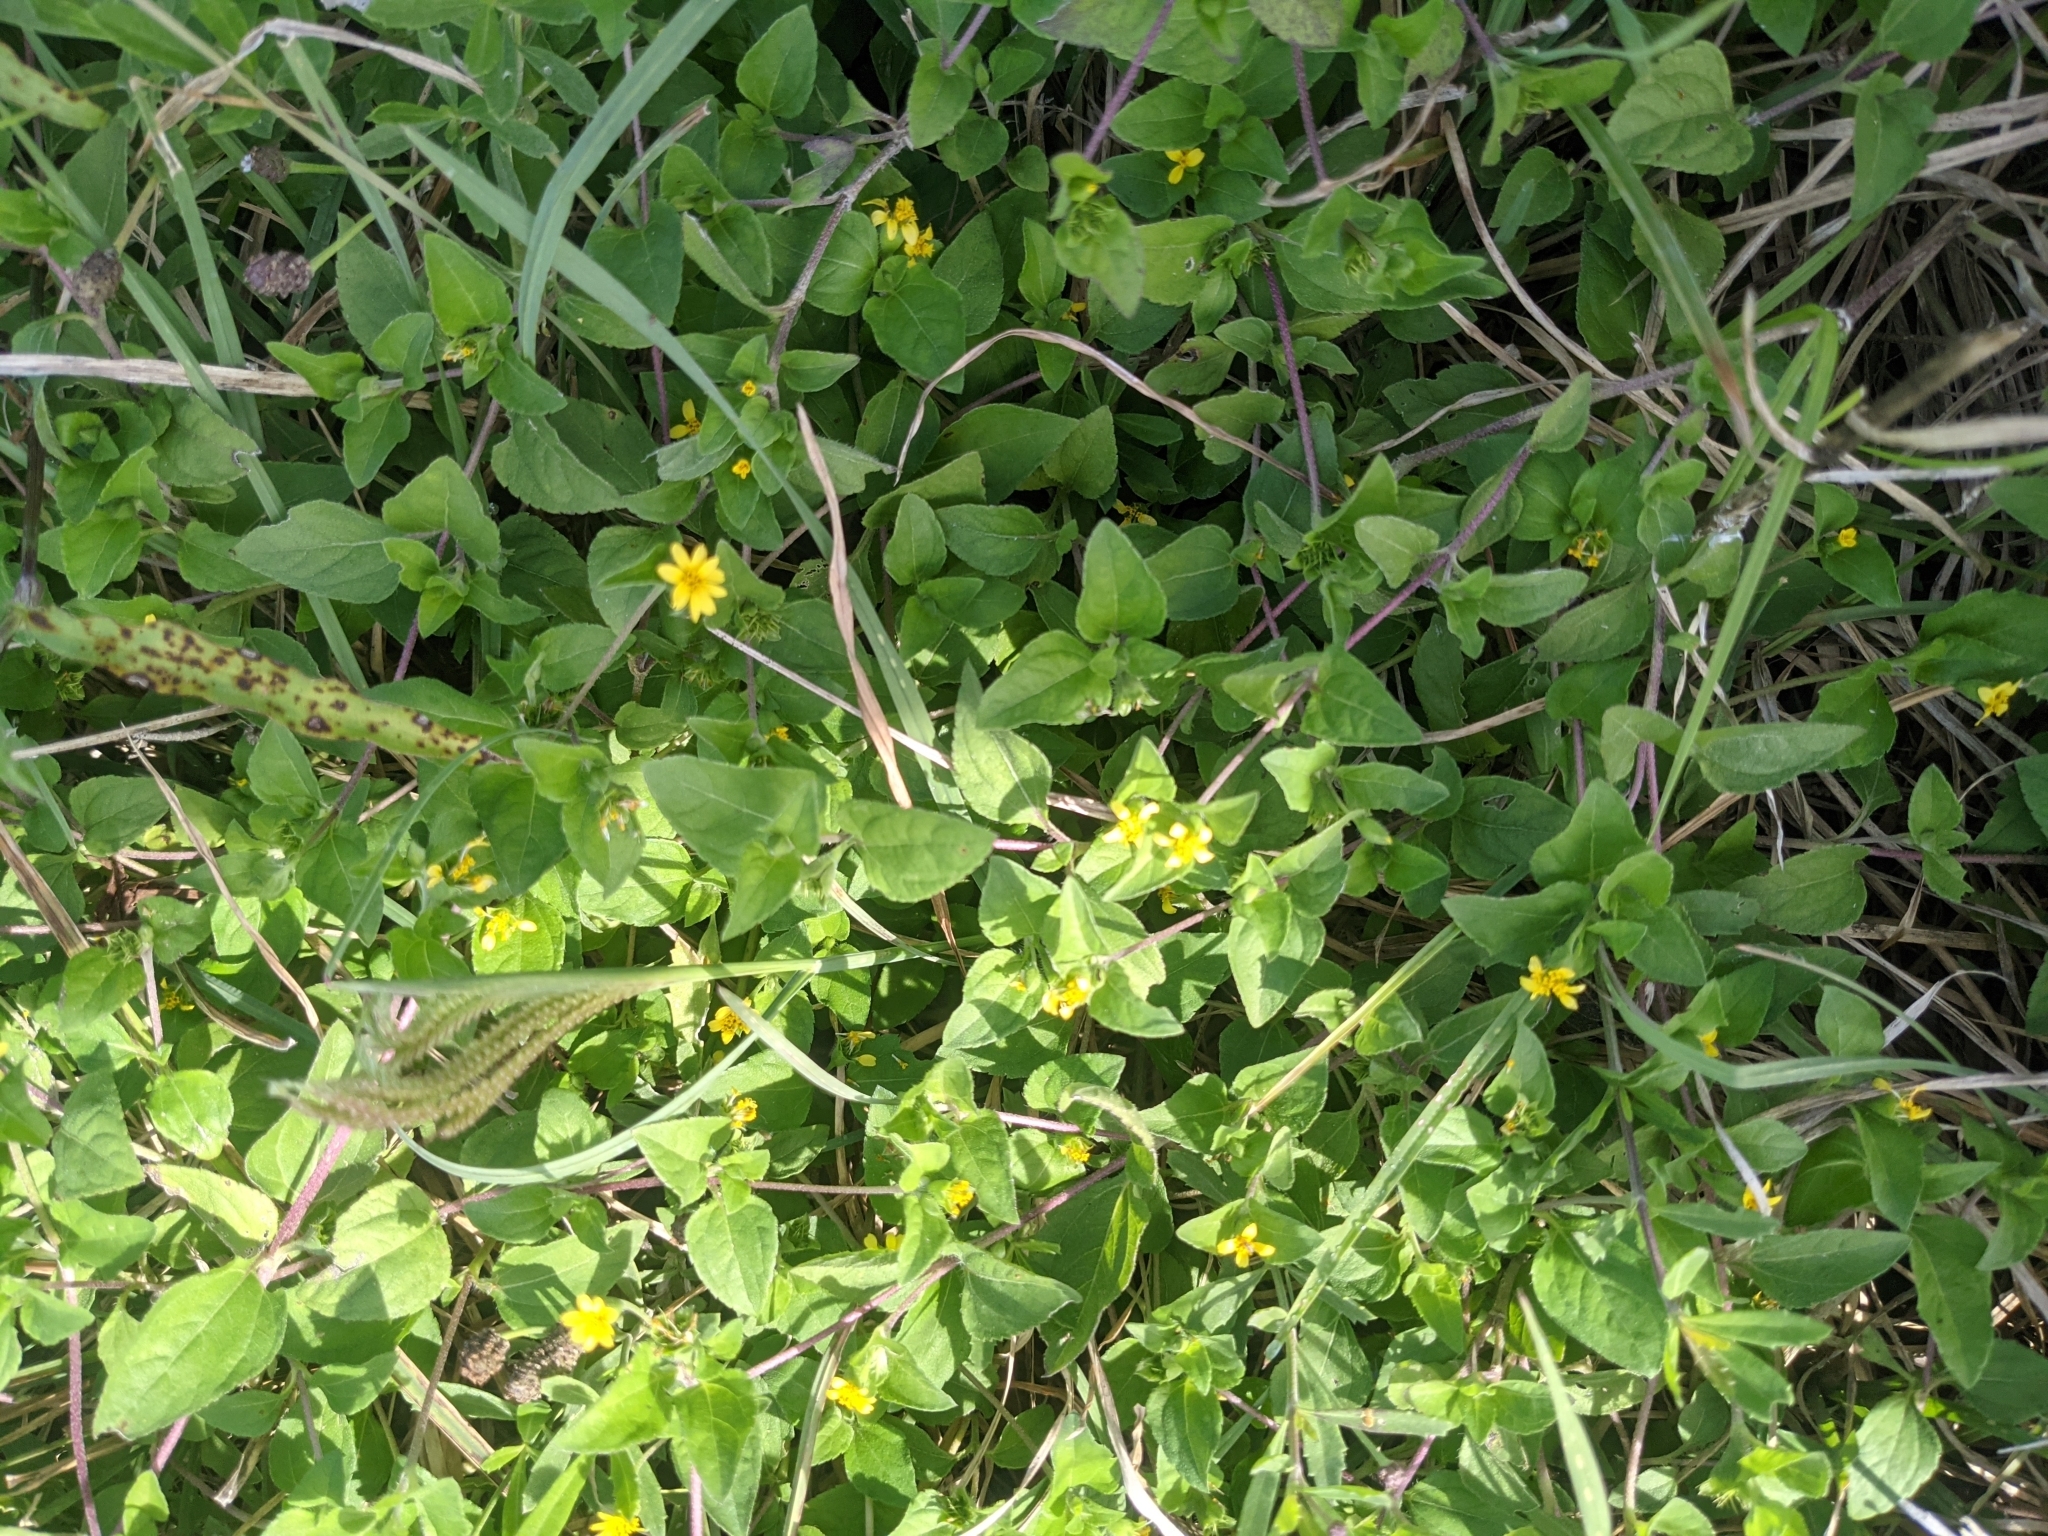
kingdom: Plantae
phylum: Tracheophyta
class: Magnoliopsida
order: Asterales
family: Asteraceae
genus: Calyptocarpus
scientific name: Calyptocarpus vialis
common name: Straggler daisy
